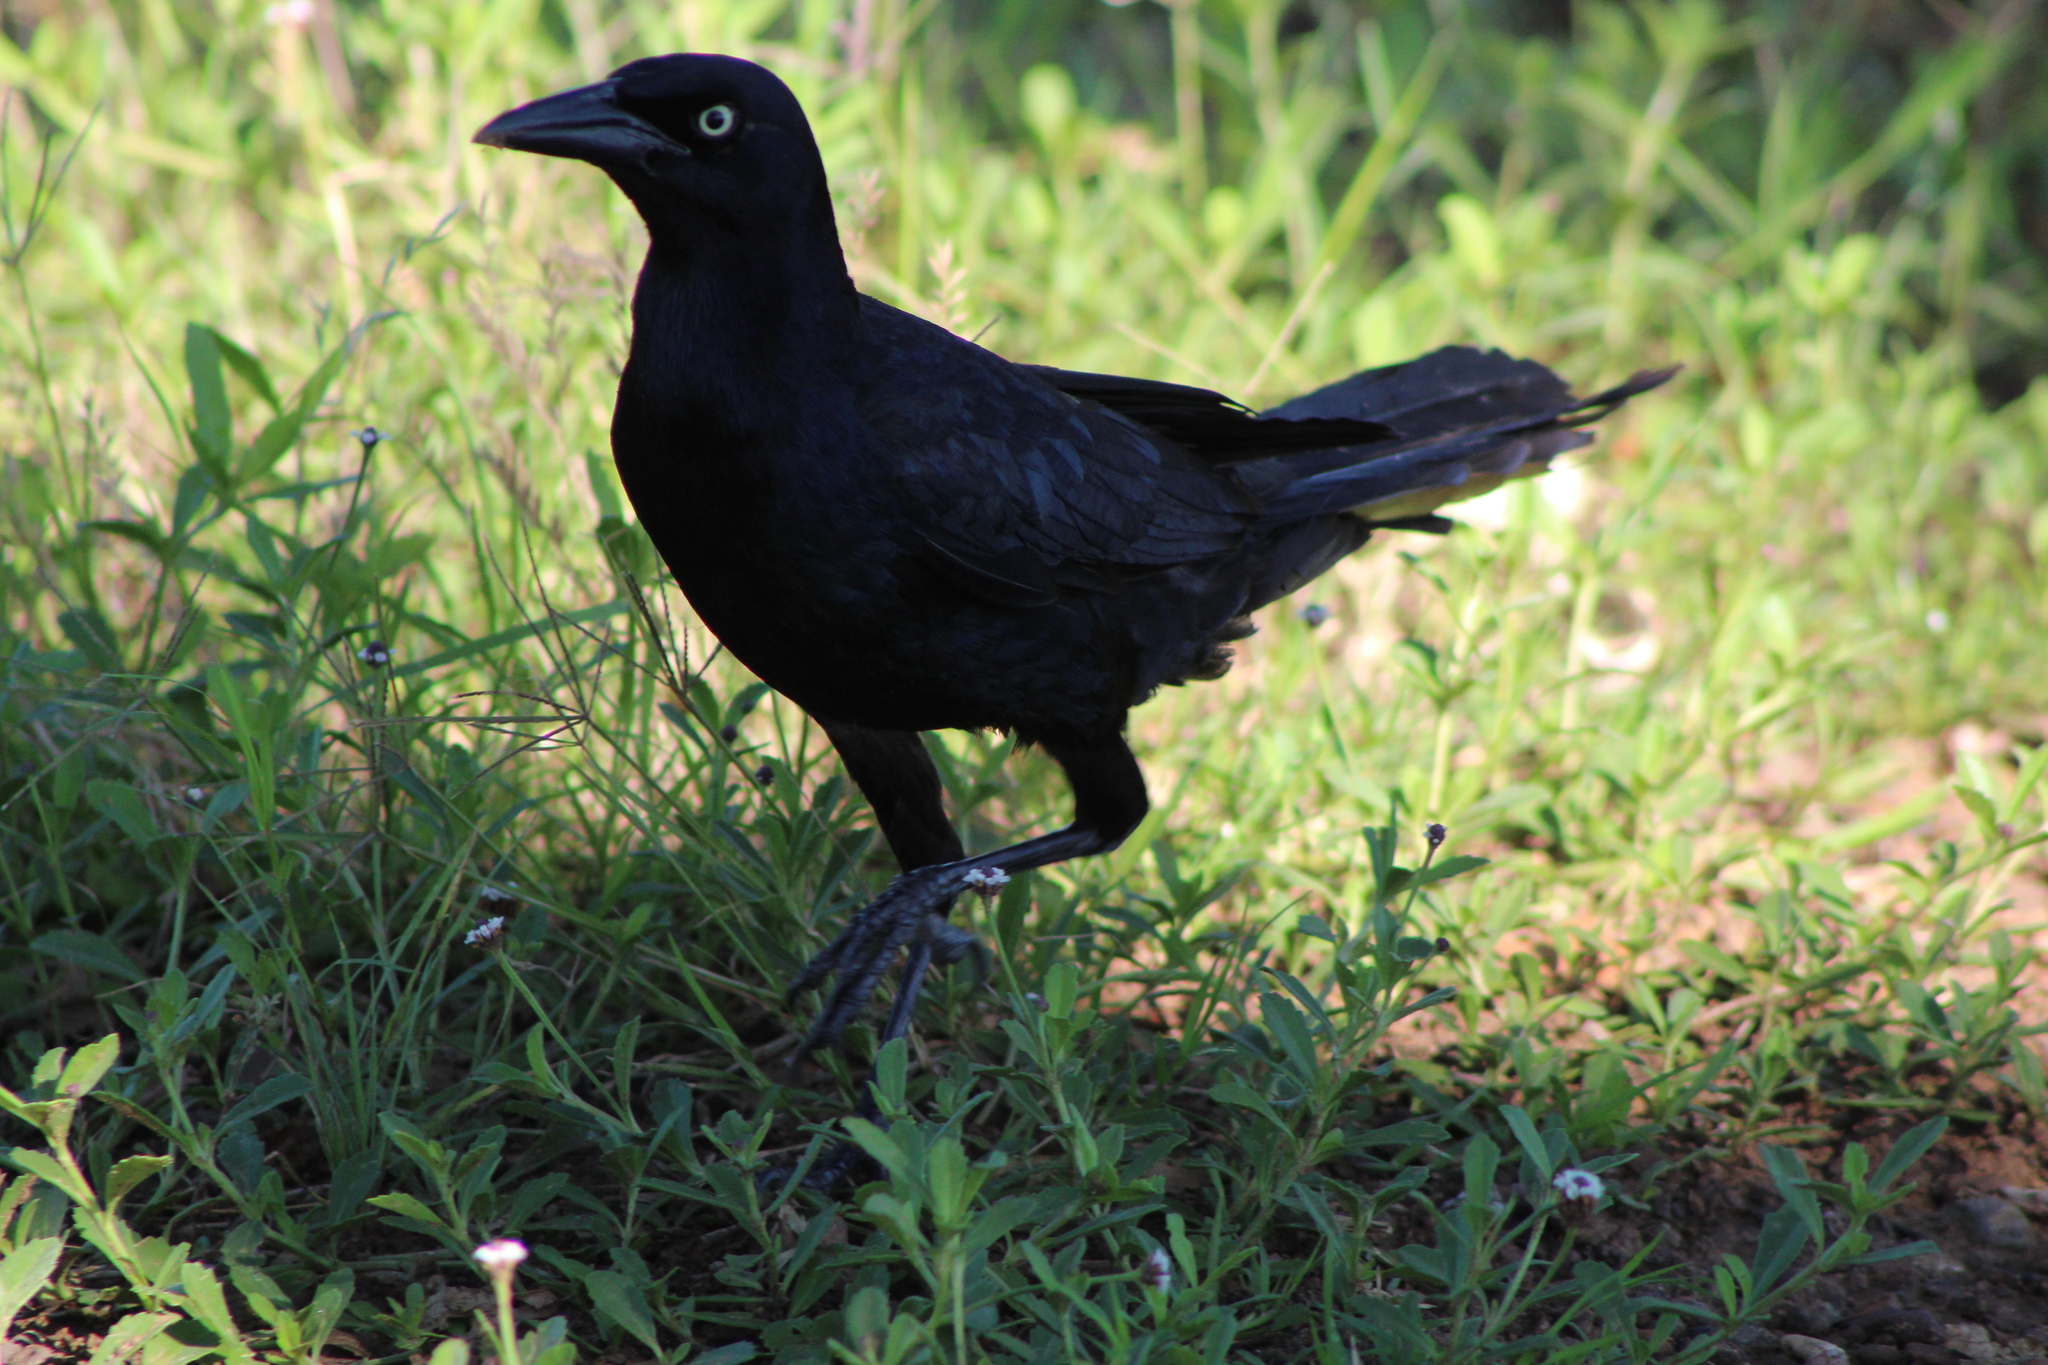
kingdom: Animalia
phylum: Chordata
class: Aves
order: Passeriformes
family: Icteridae
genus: Quiscalus
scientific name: Quiscalus mexicanus
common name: Great-tailed grackle
